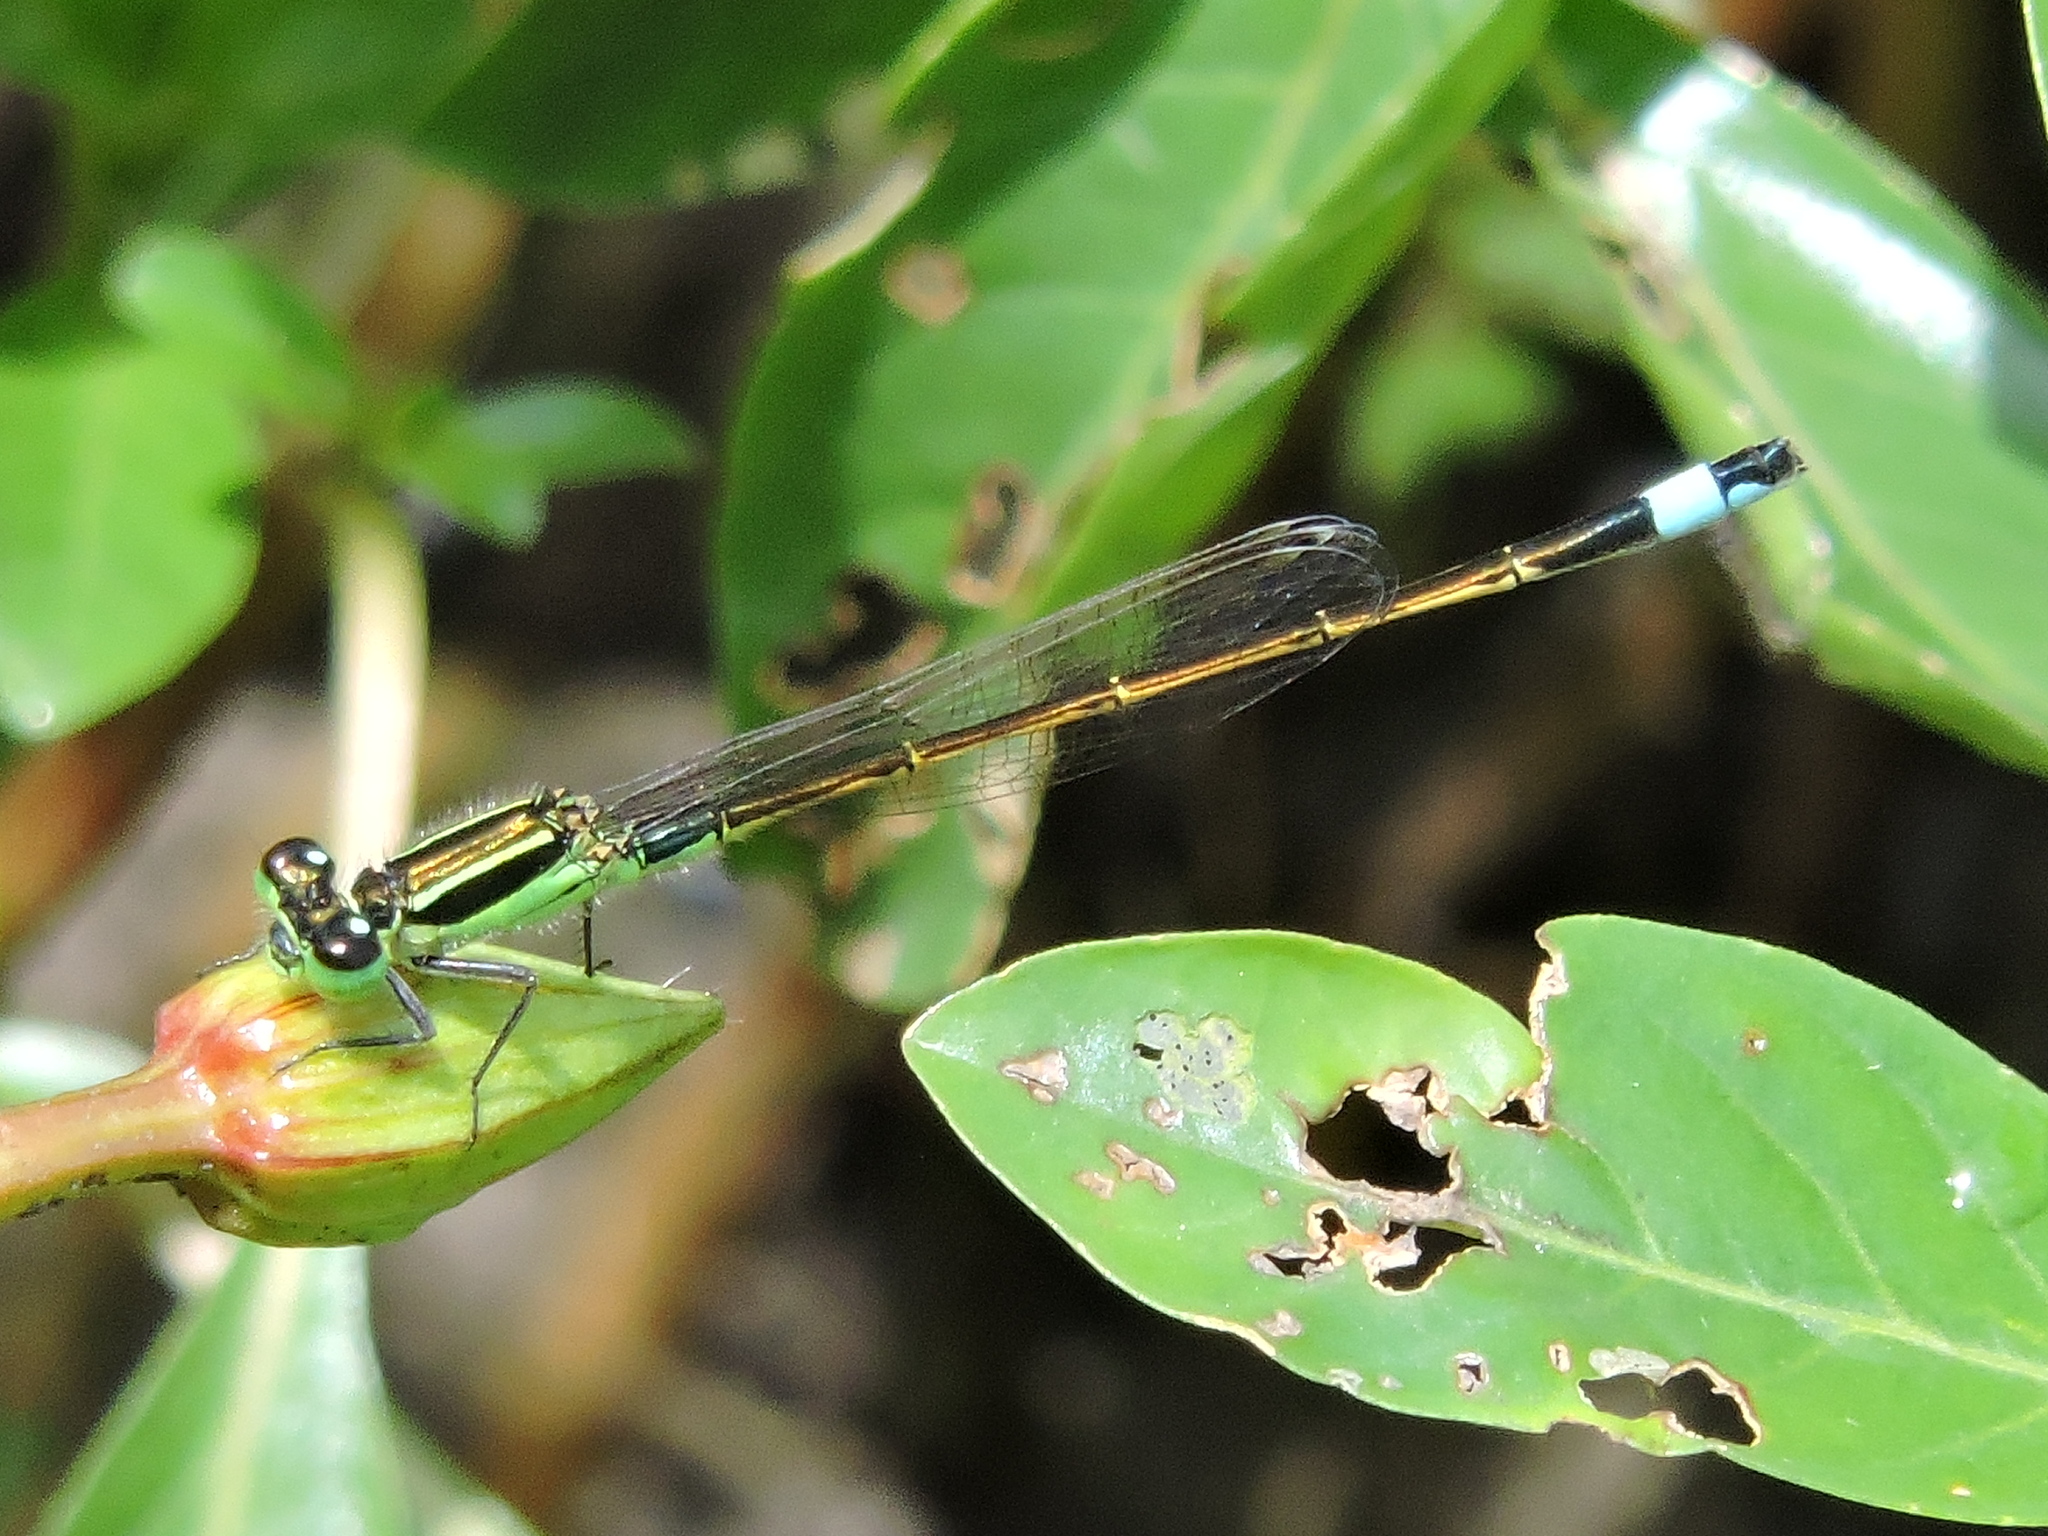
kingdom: Animalia
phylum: Arthropoda
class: Insecta
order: Odonata
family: Coenagrionidae
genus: Ischnura
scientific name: Ischnura ramburii
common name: Rambur's forktail
